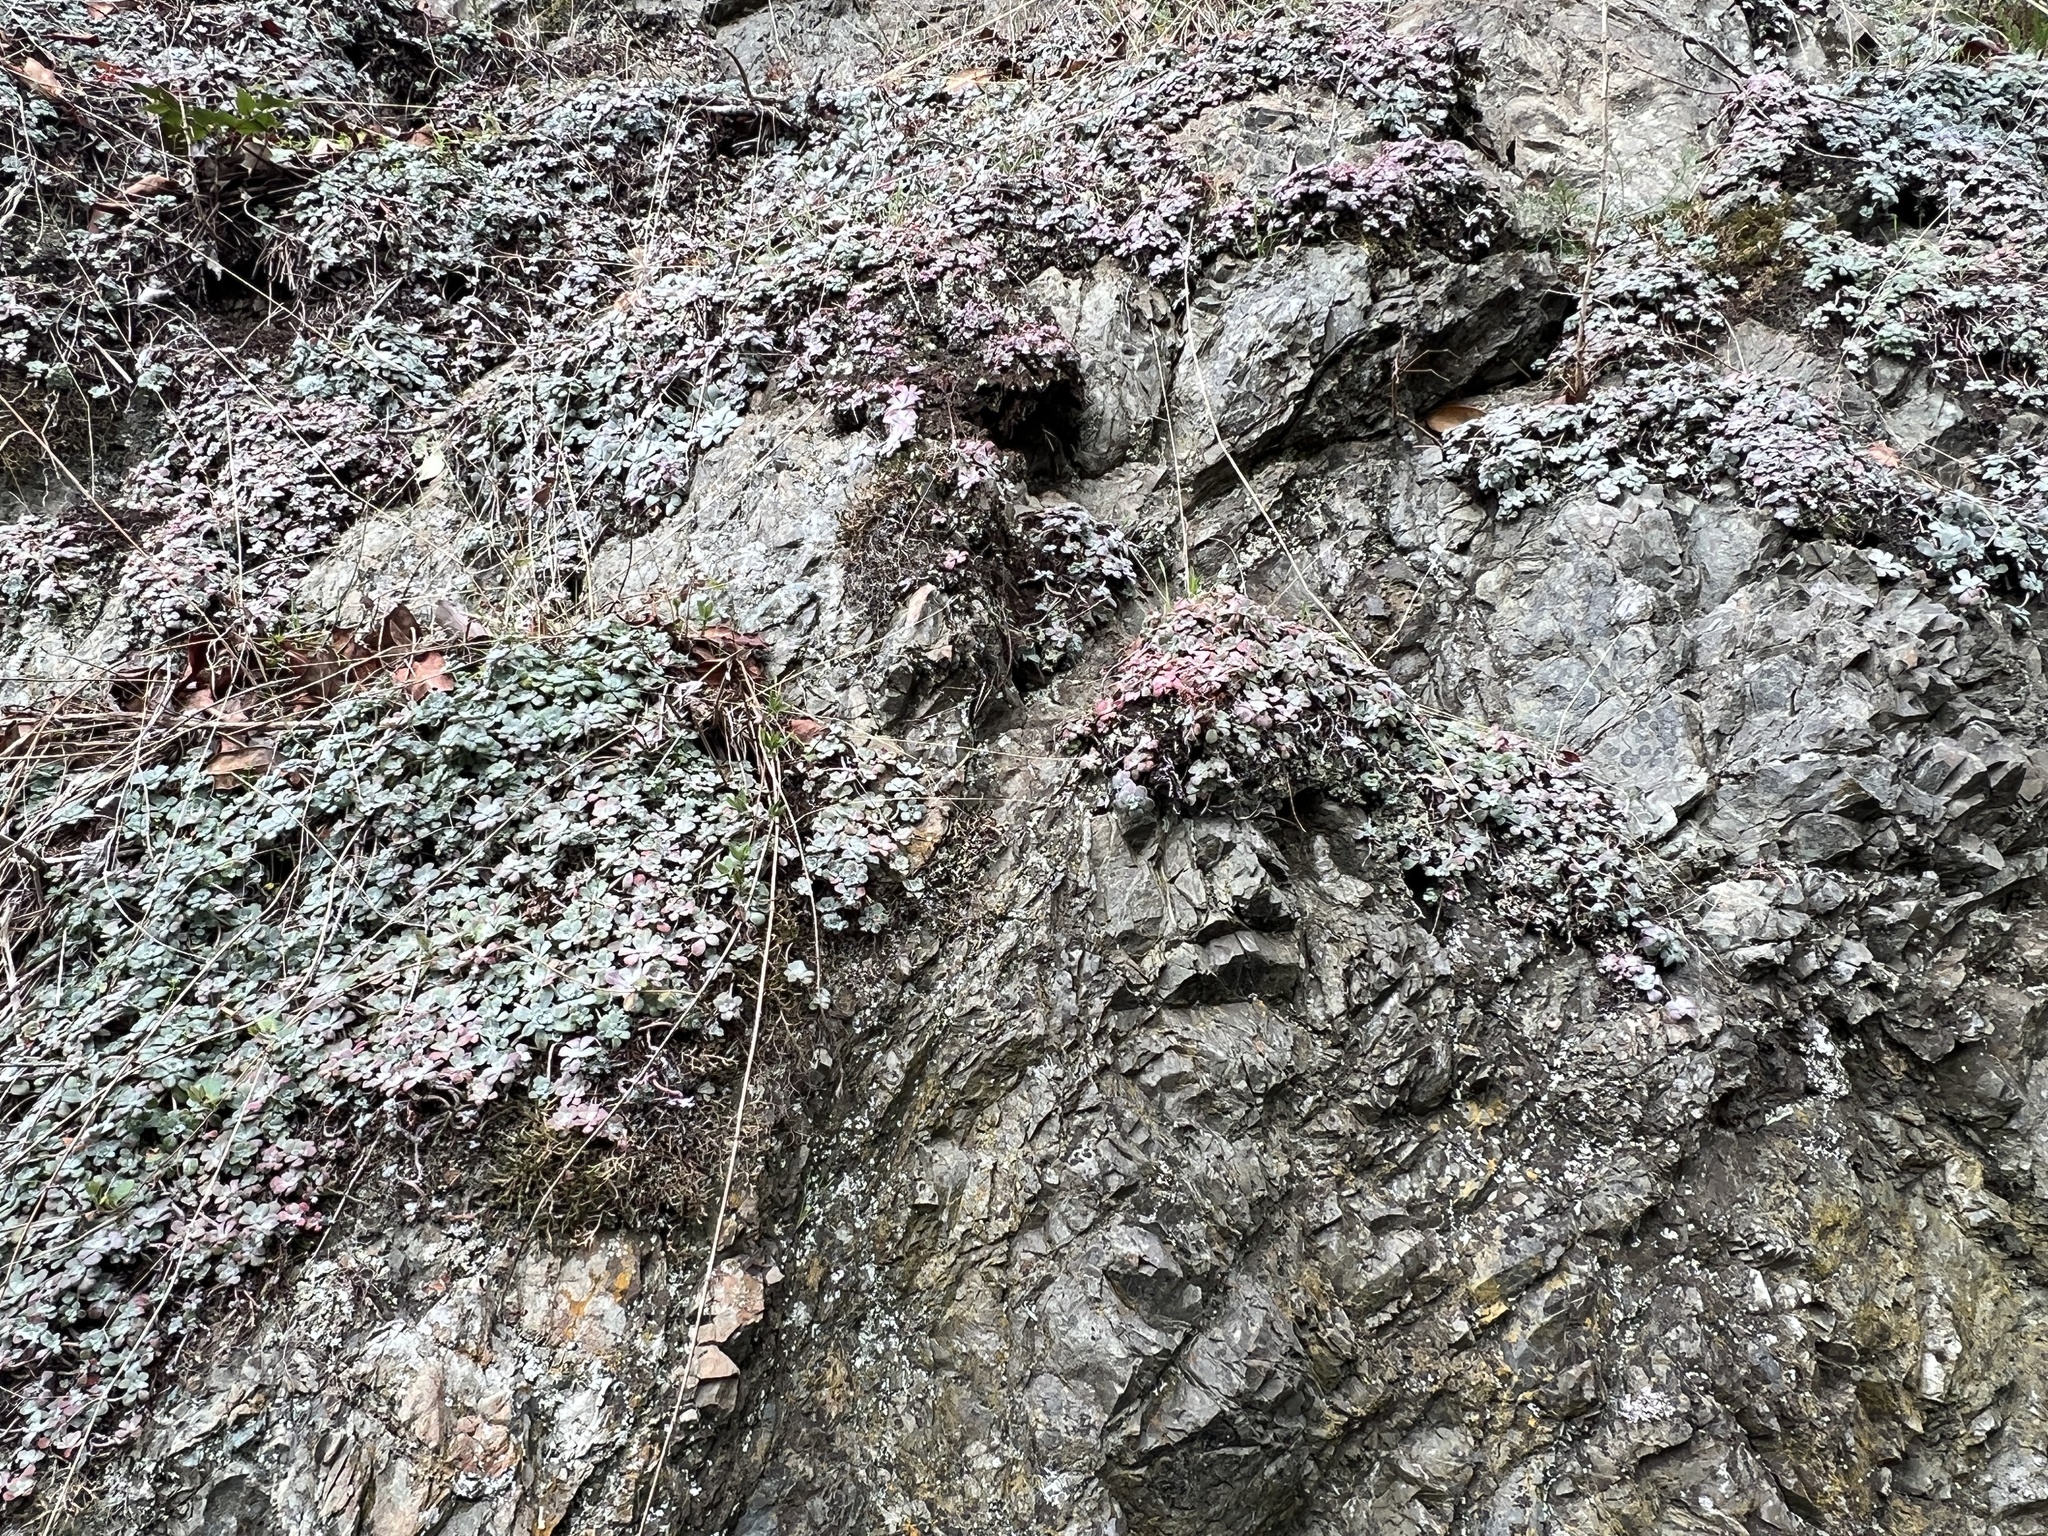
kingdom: Plantae
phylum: Tracheophyta
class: Magnoliopsida
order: Saxifragales
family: Crassulaceae
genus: Sedum
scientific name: Sedum spathulifolium
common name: Colorado stonecrop
